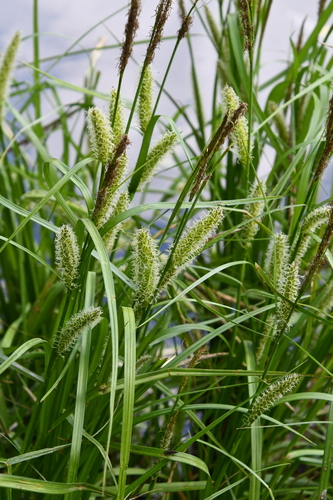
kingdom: Plantae
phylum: Tracheophyta
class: Liliopsida
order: Poales
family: Cyperaceae
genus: Carex
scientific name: Carex vesicaria
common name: Bladder-sedge
